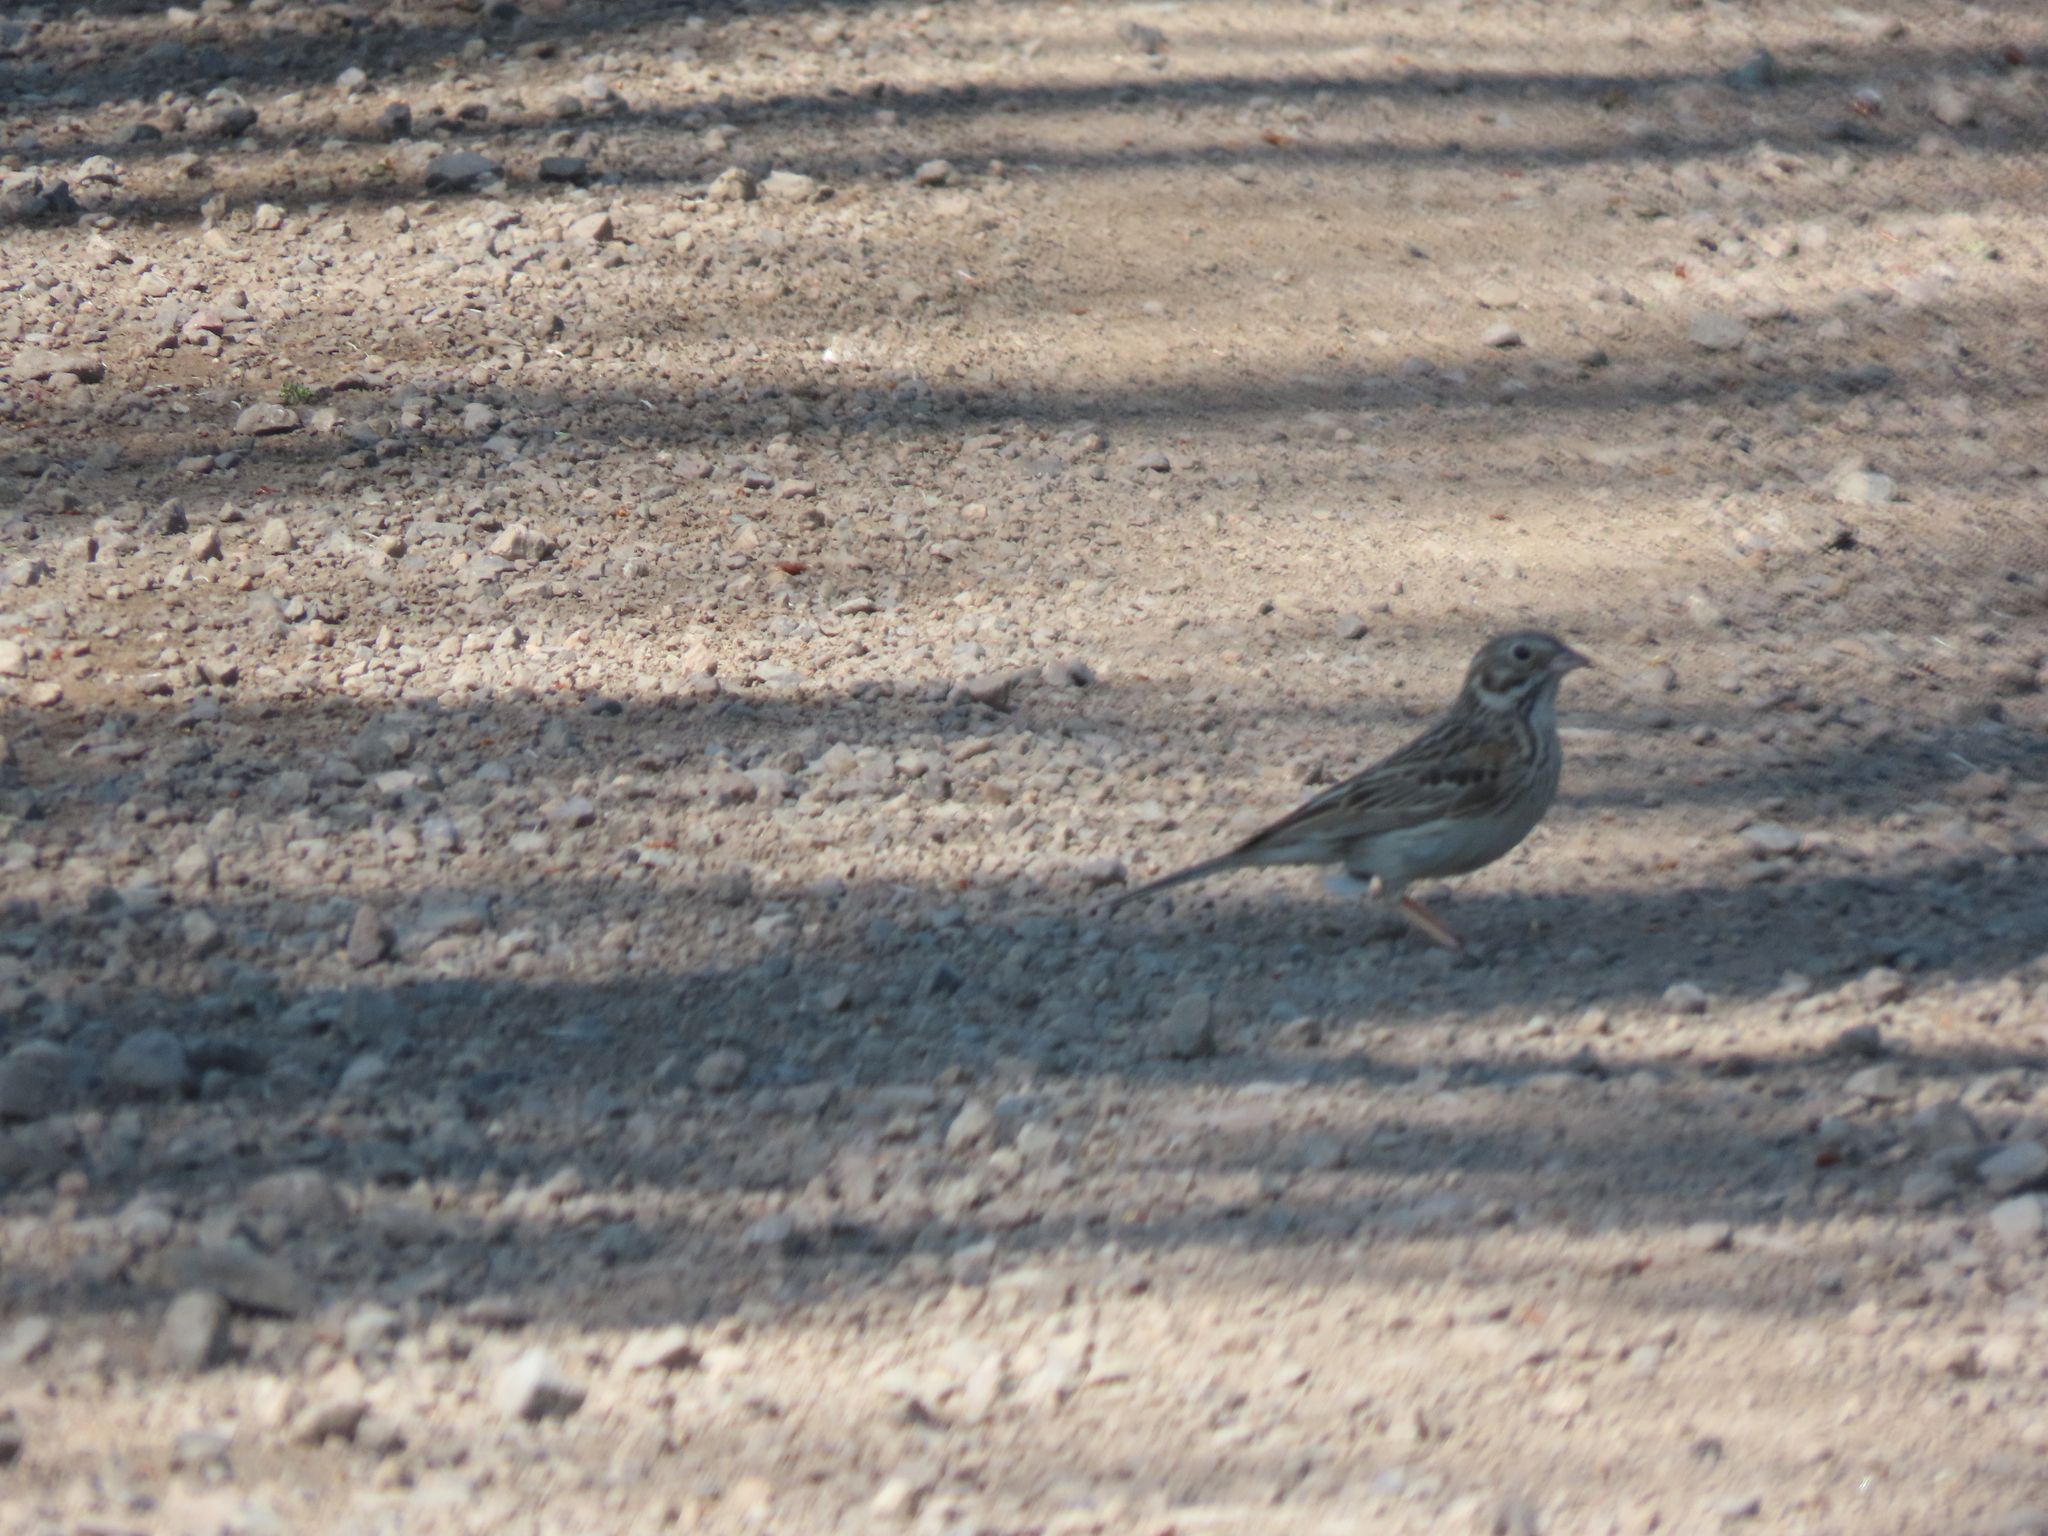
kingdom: Animalia
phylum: Chordata
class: Aves
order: Passeriformes
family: Passerellidae
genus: Pooecetes
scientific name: Pooecetes gramineus
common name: Vesper sparrow
